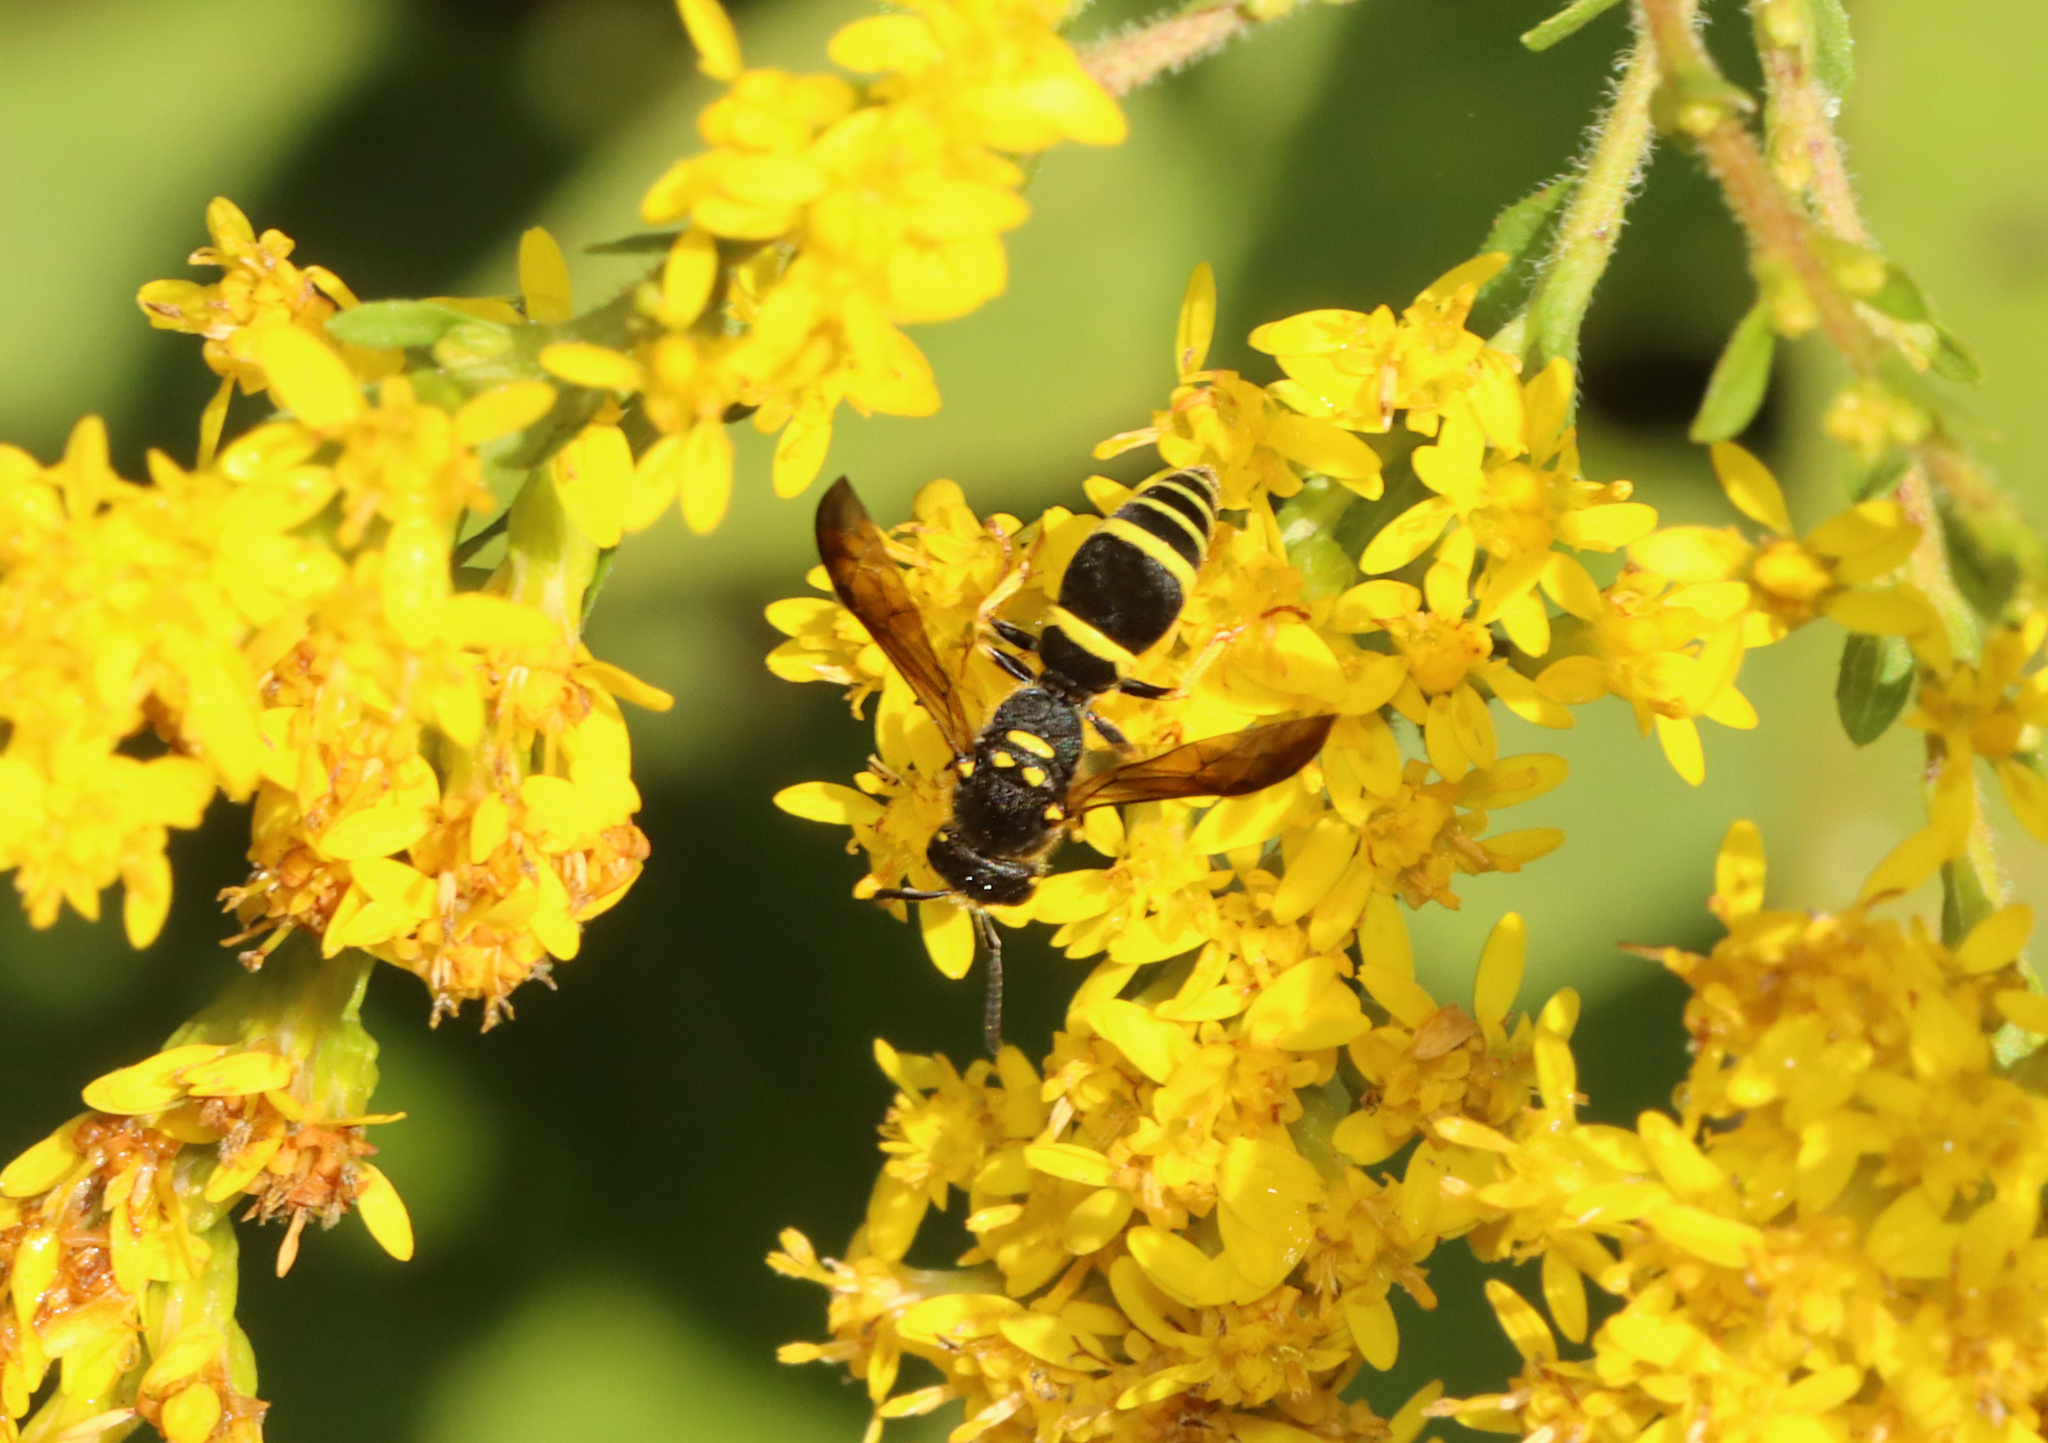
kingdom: Animalia
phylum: Arthropoda
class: Insecta
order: Hymenoptera
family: Vespidae
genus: Ancistrocerus
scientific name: Ancistrocerus adiabatus
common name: Bramble mason wasp
